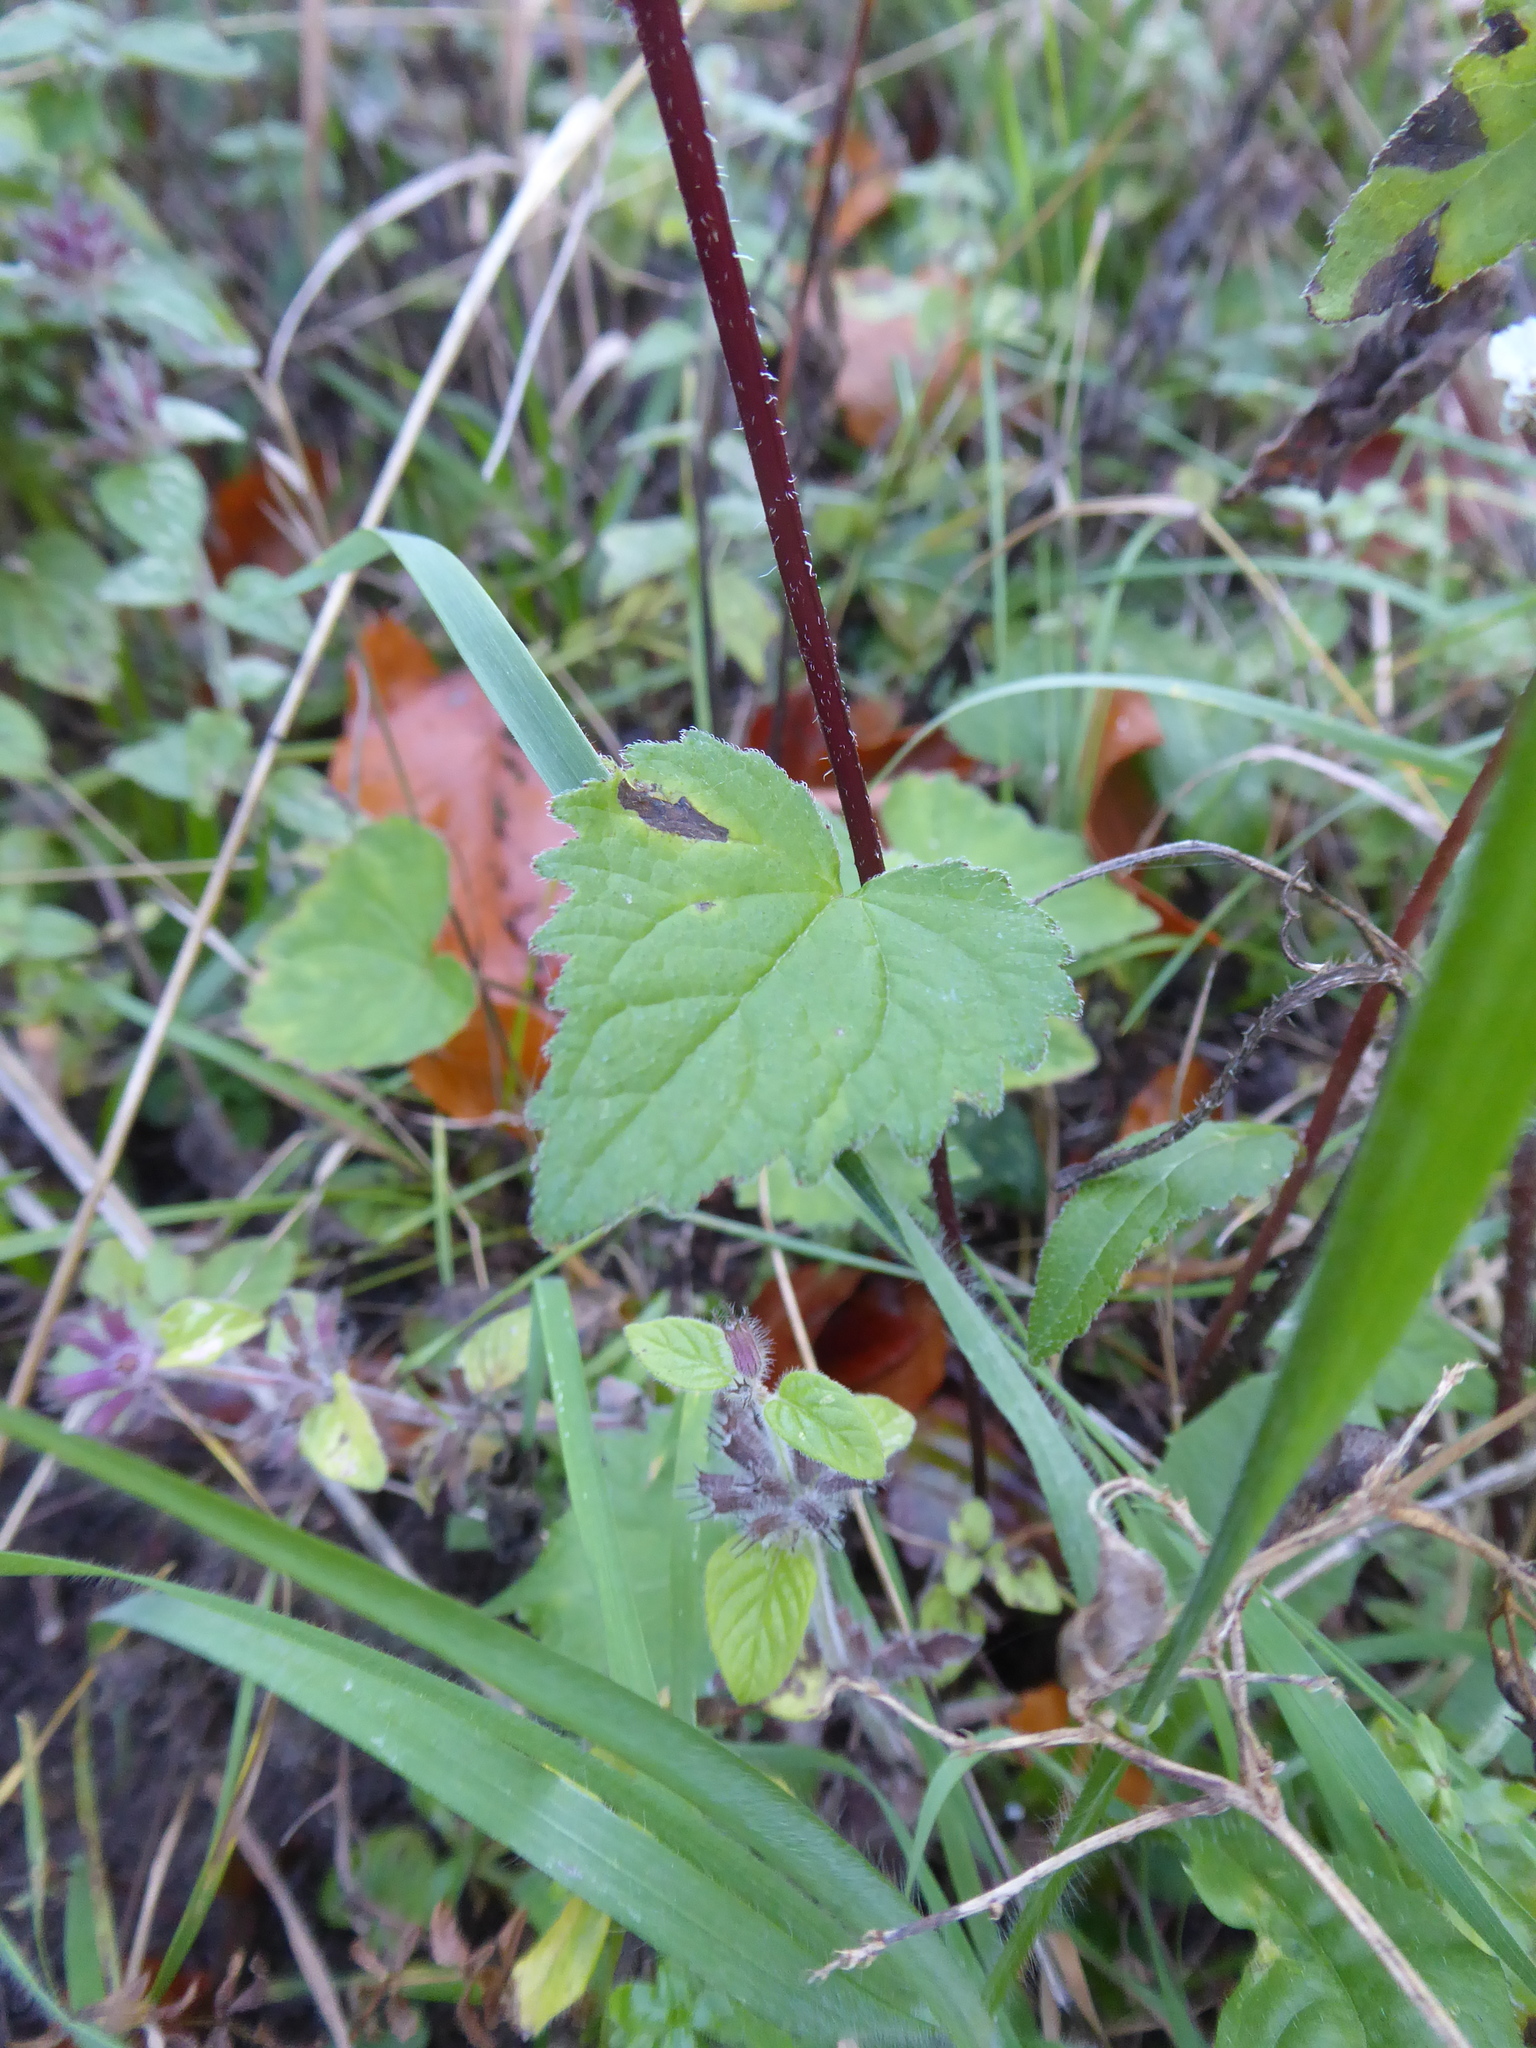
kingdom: Plantae
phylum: Tracheophyta
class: Magnoliopsida
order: Asterales
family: Campanulaceae
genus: Campanula
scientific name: Campanula trachelium
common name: Nettle-leaved bellflower
